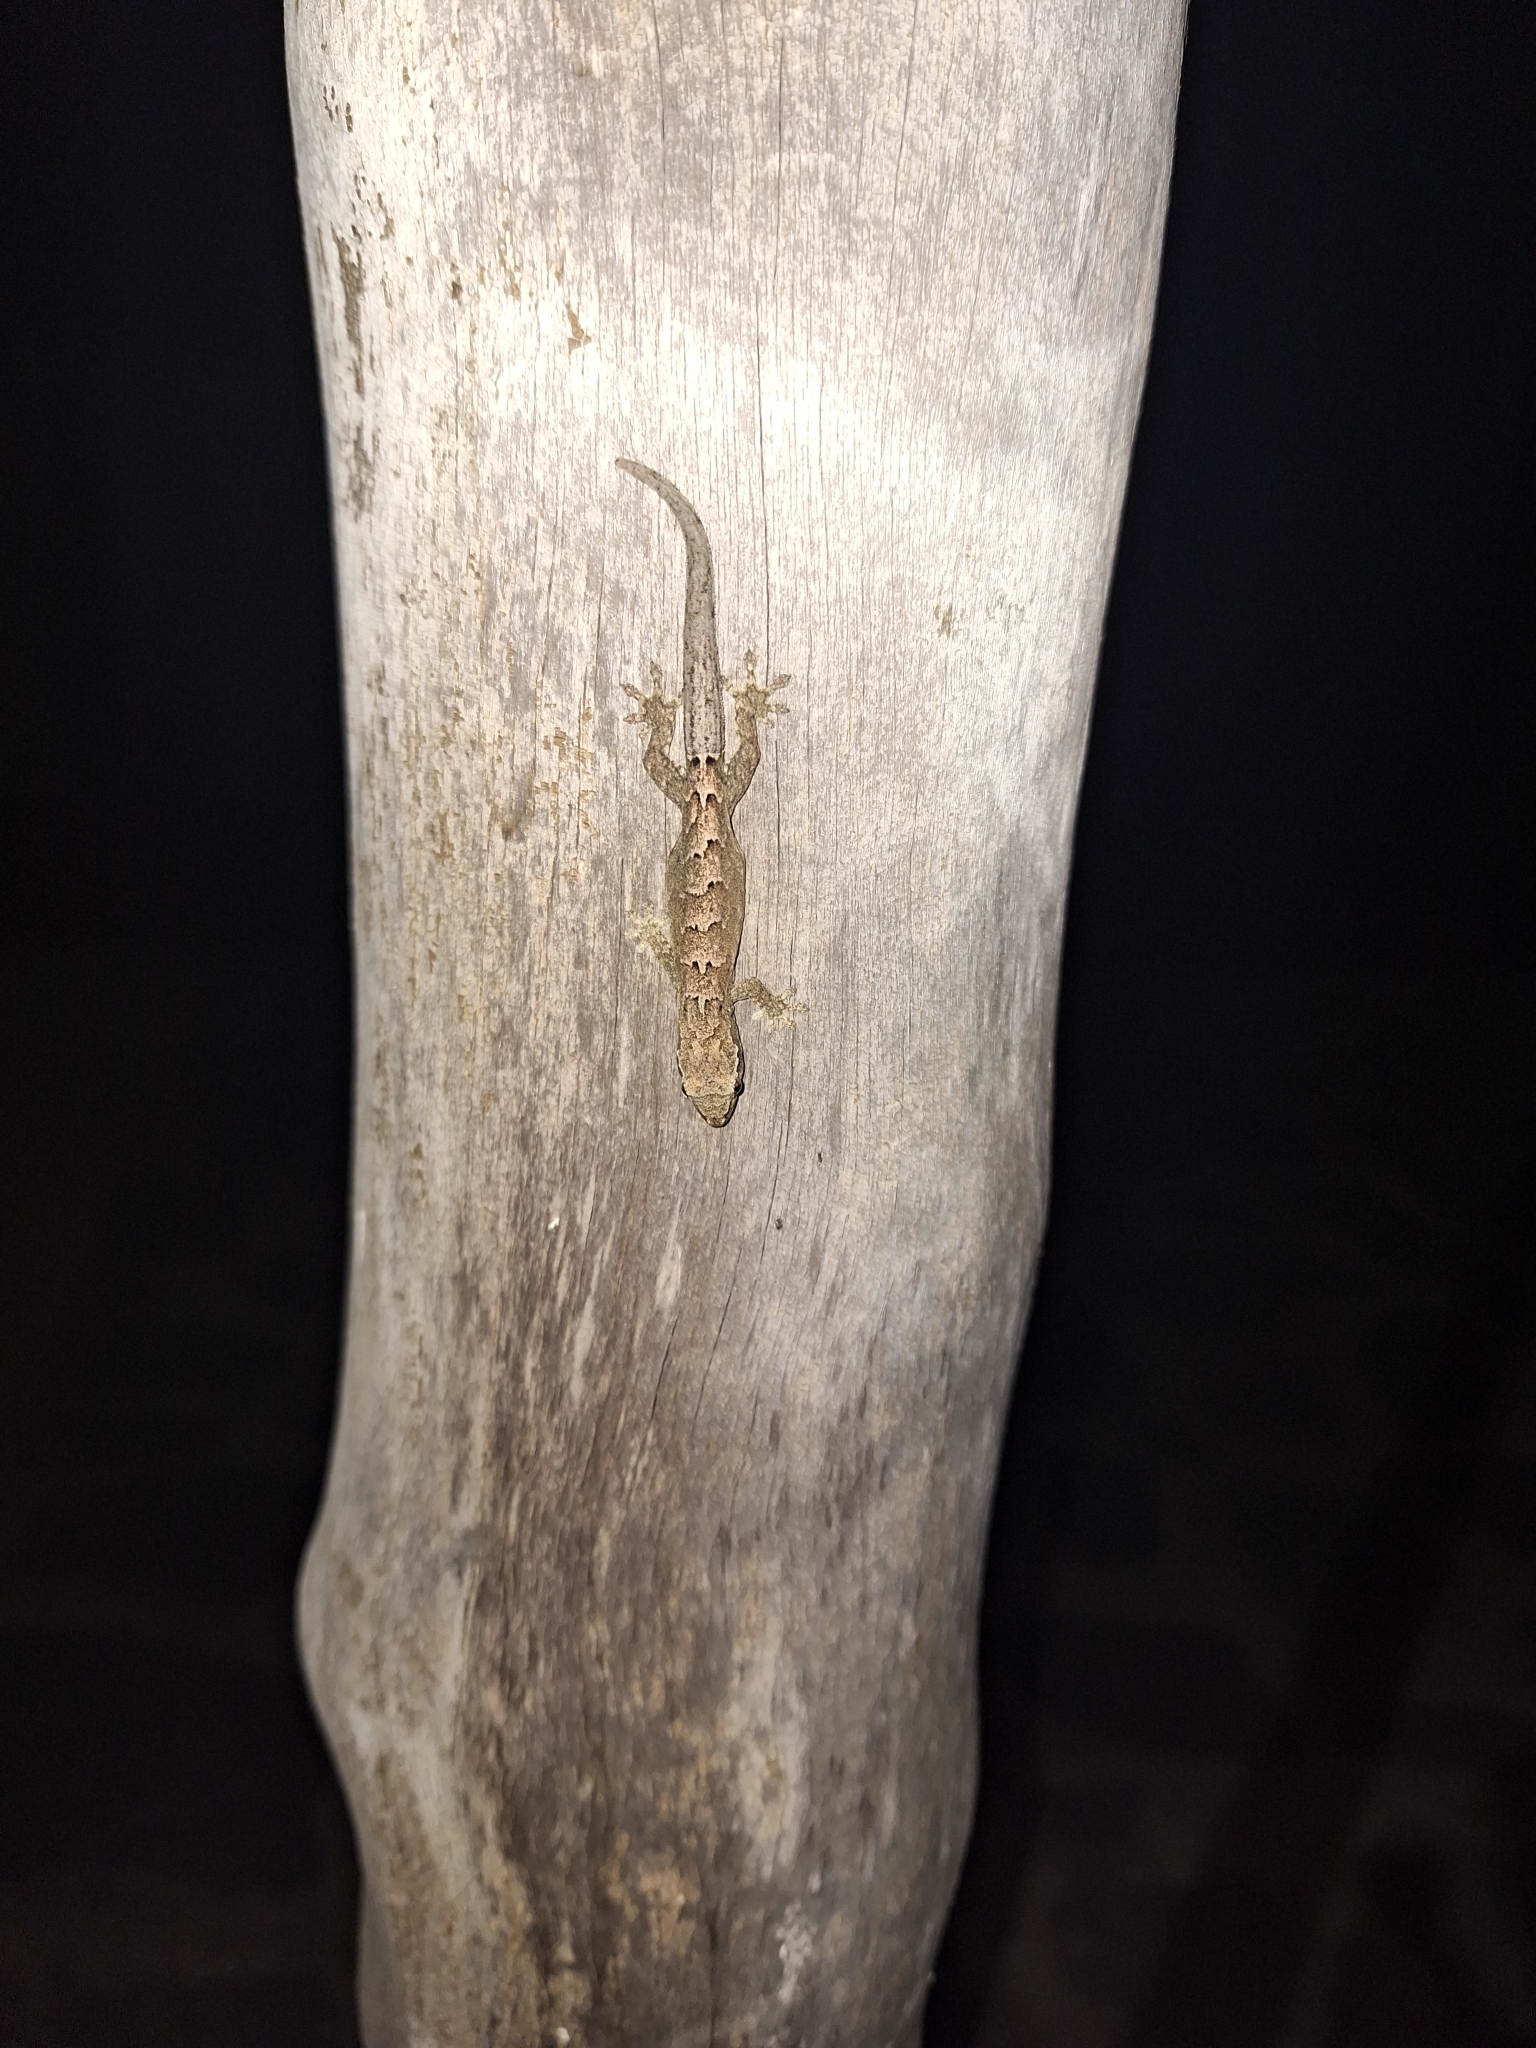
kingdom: Animalia
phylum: Chordata
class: Squamata
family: Gekkonidae
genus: Lepidodactylus
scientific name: Lepidodactylus lugubris
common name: Mourning gecko
